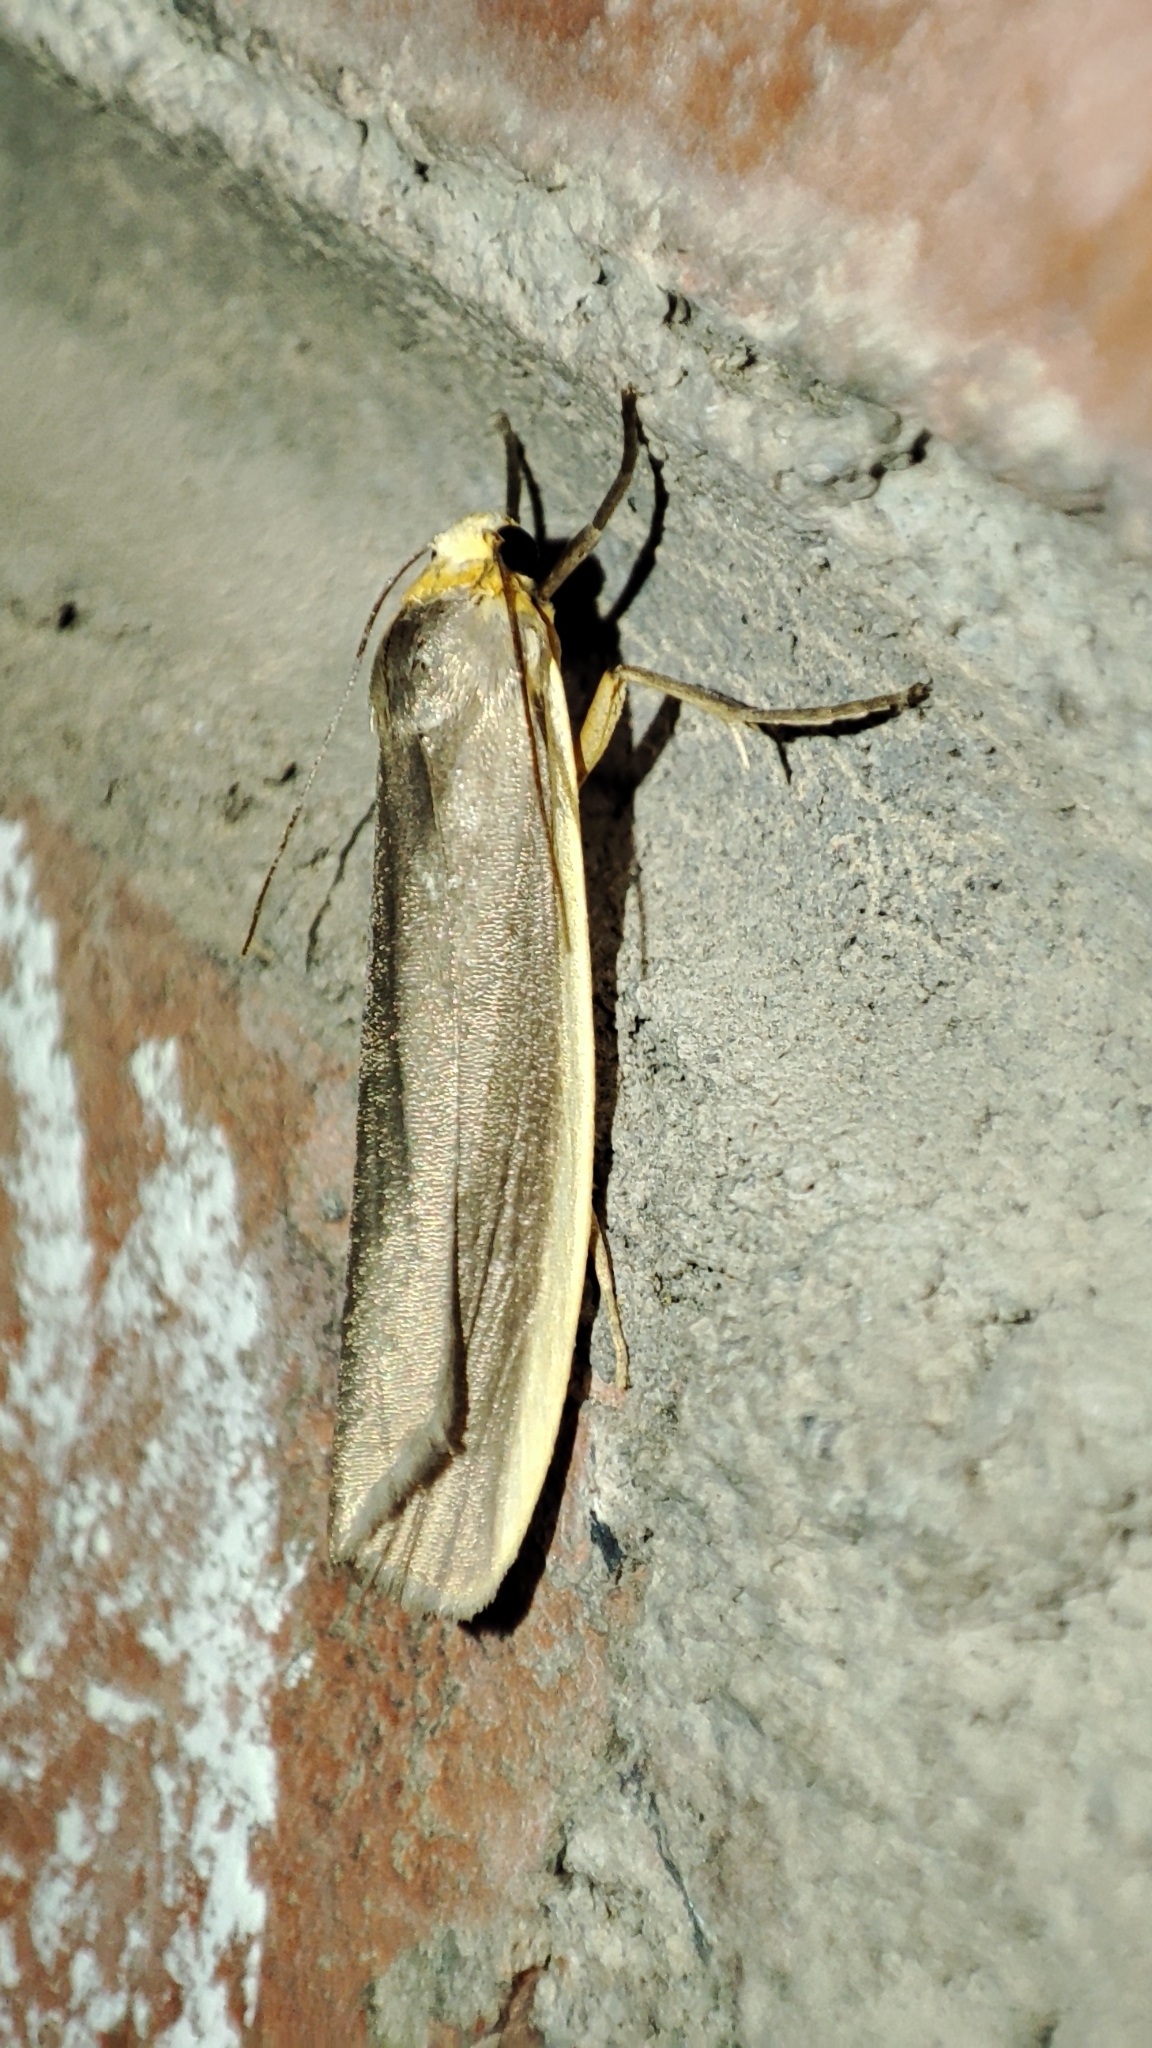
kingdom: Animalia
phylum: Arthropoda
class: Insecta
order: Lepidoptera
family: Erebidae
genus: Ghoria
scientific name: Ghoria gigantea
